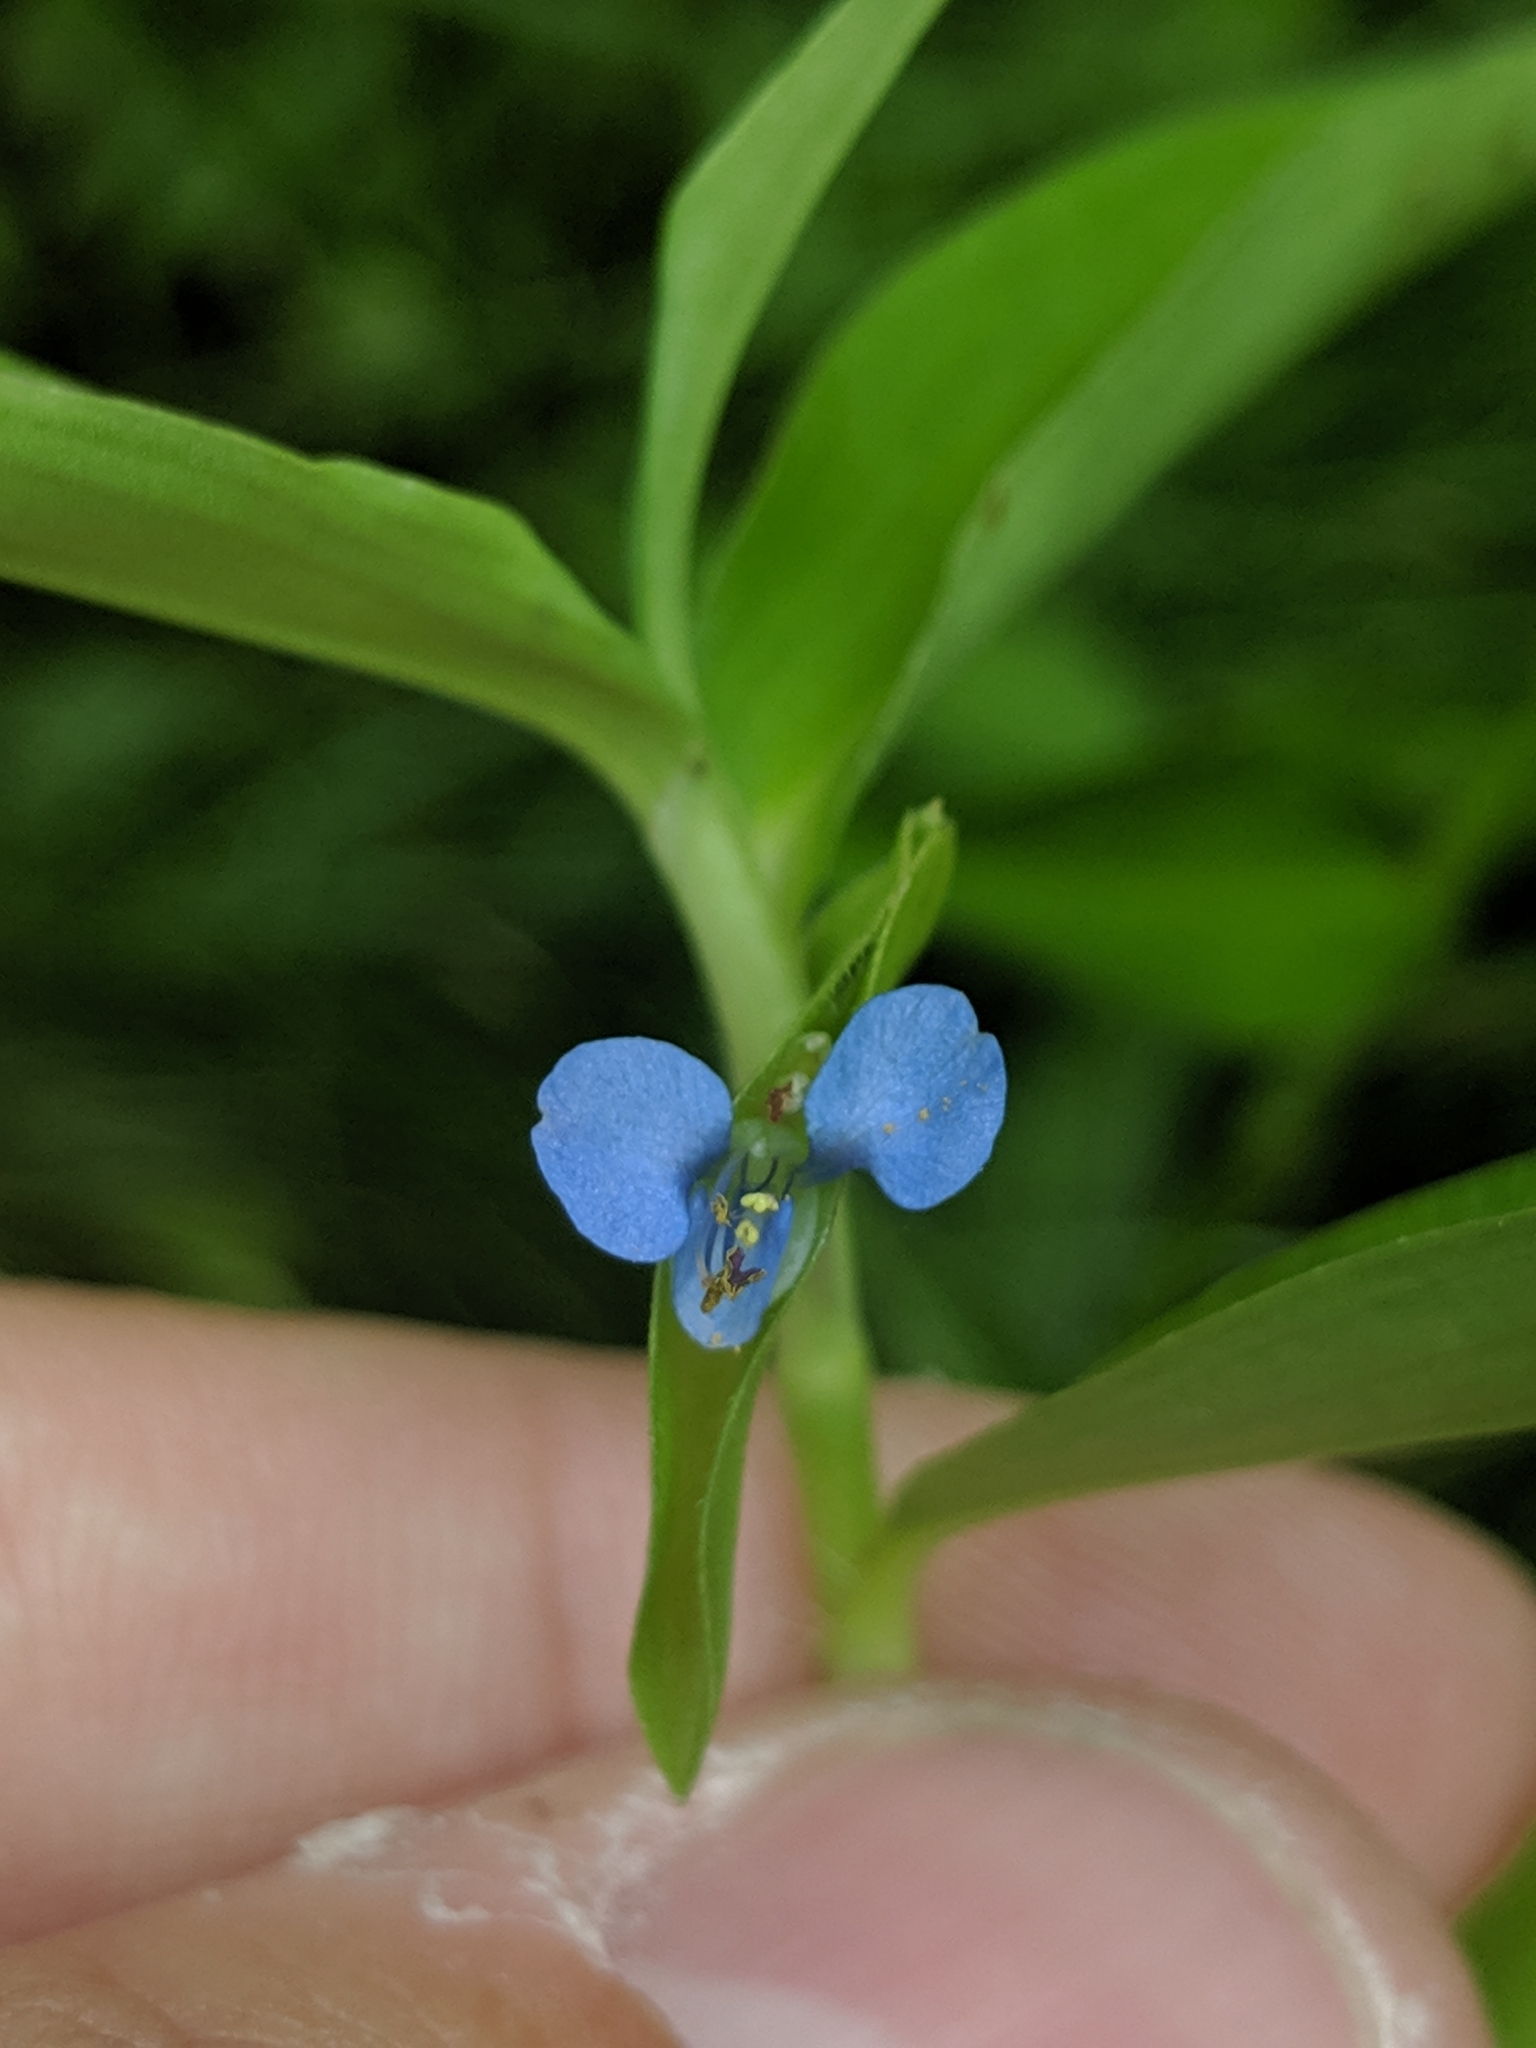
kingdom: Plantae
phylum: Tracheophyta
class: Liliopsida
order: Commelinales
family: Commelinaceae
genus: Commelina
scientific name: Commelina diffusa
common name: Climbing dayflower
